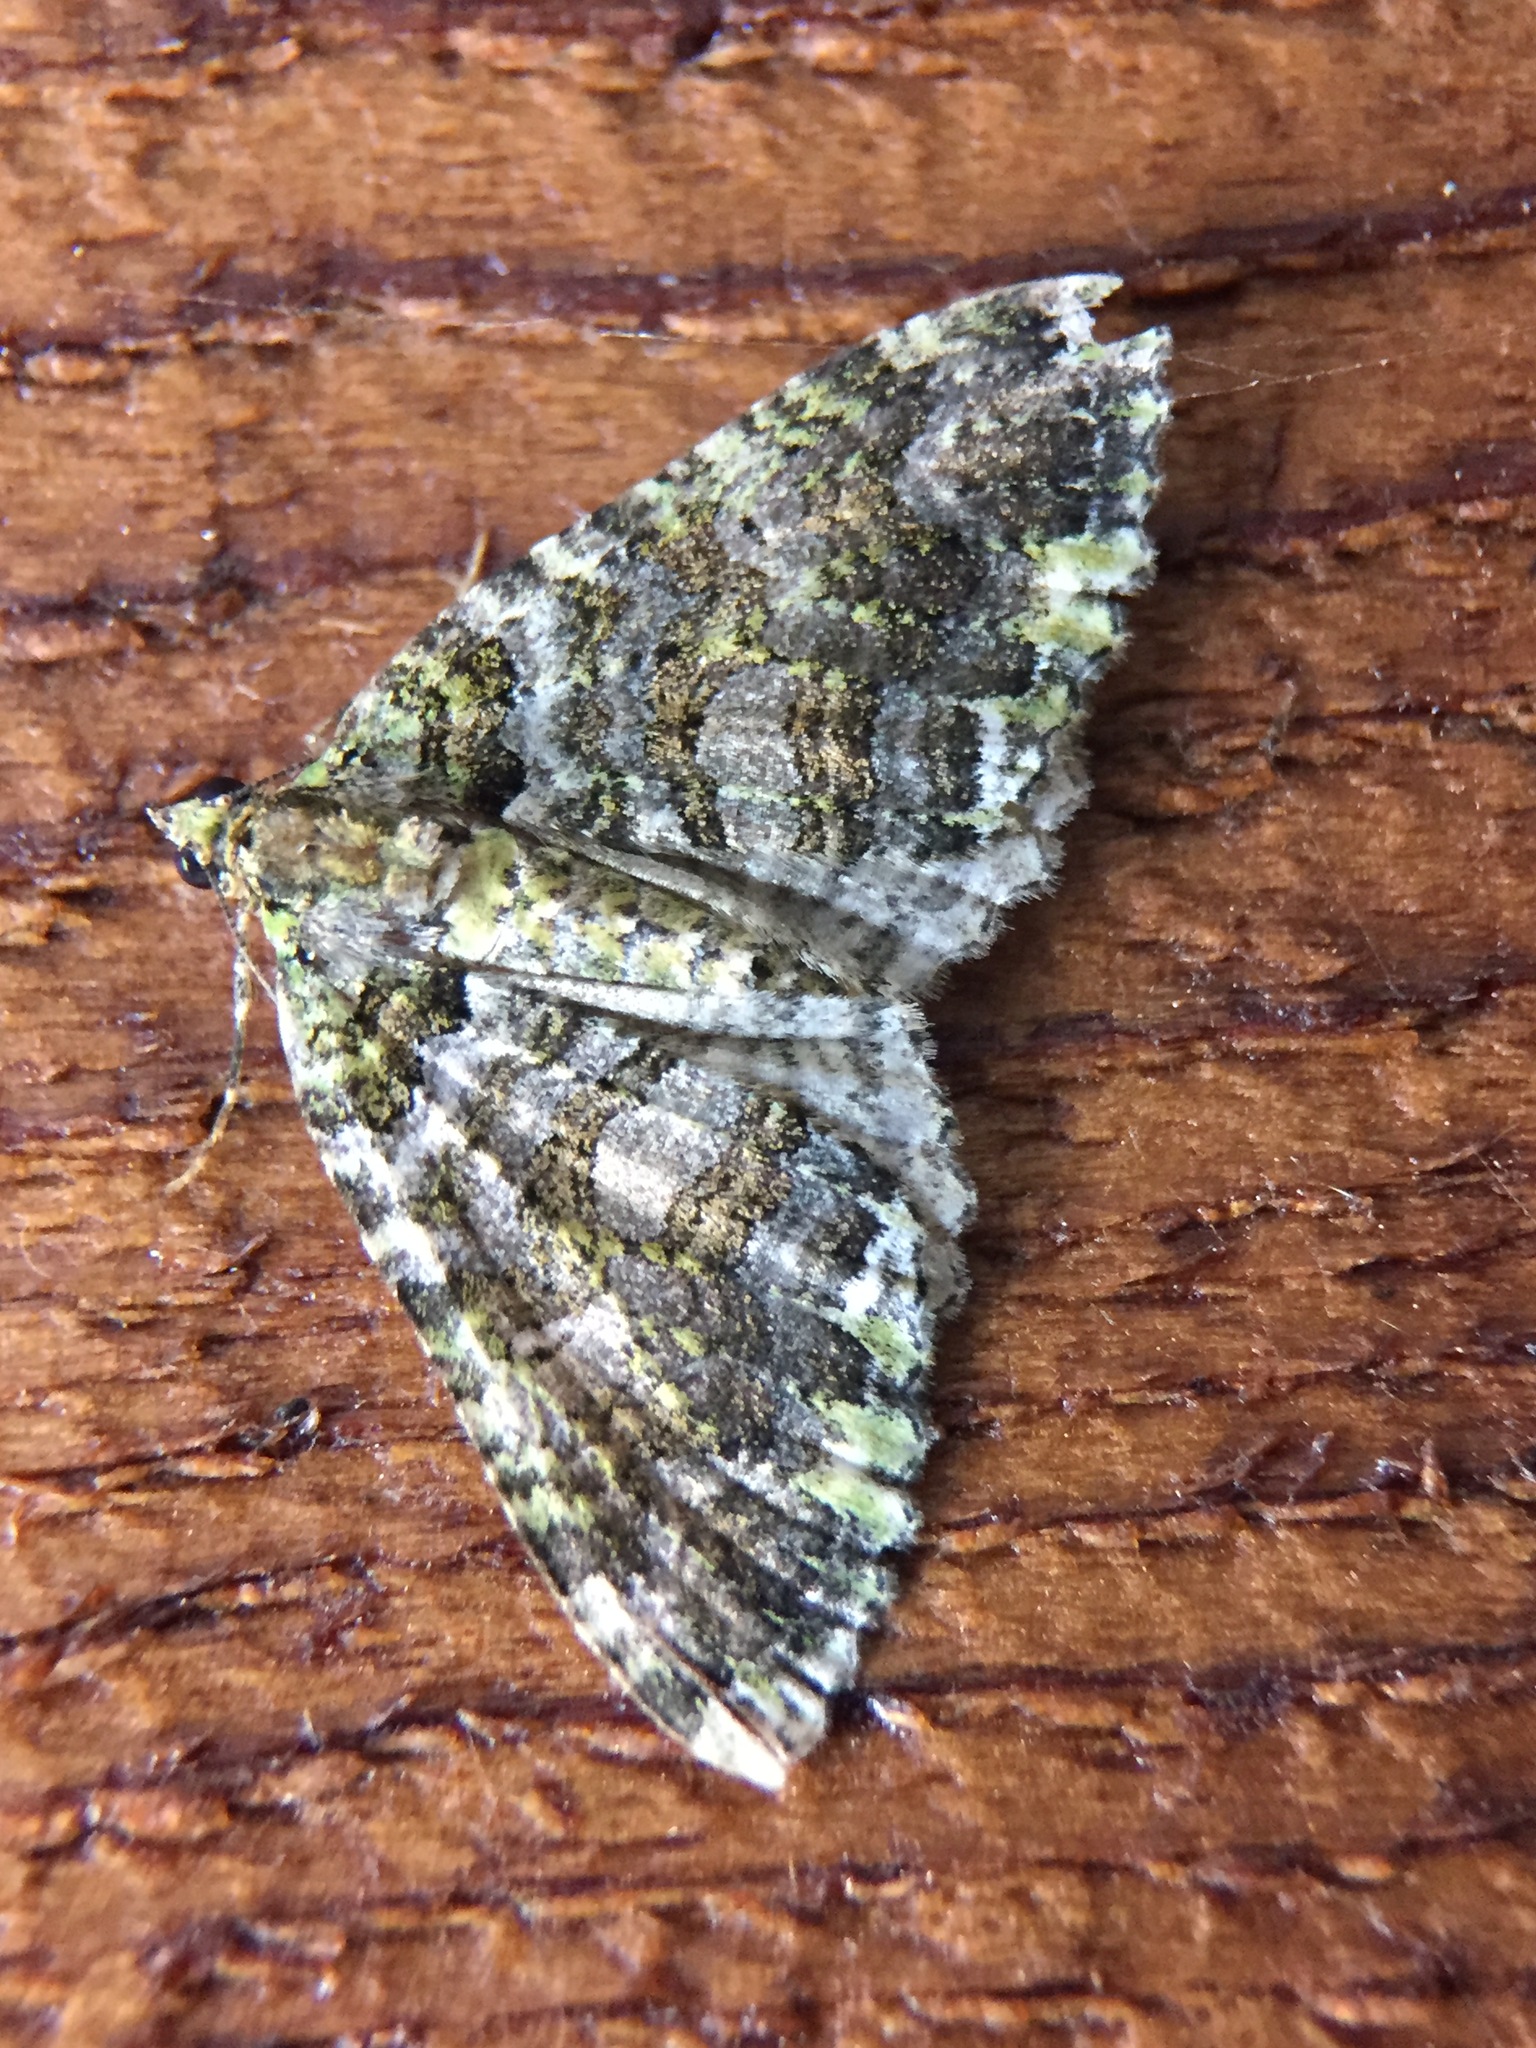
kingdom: Animalia
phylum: Arthropoda
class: Insecta
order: Lepidoptera
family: Geometridae
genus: Austrocidaria
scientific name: Austrocidaria similata
